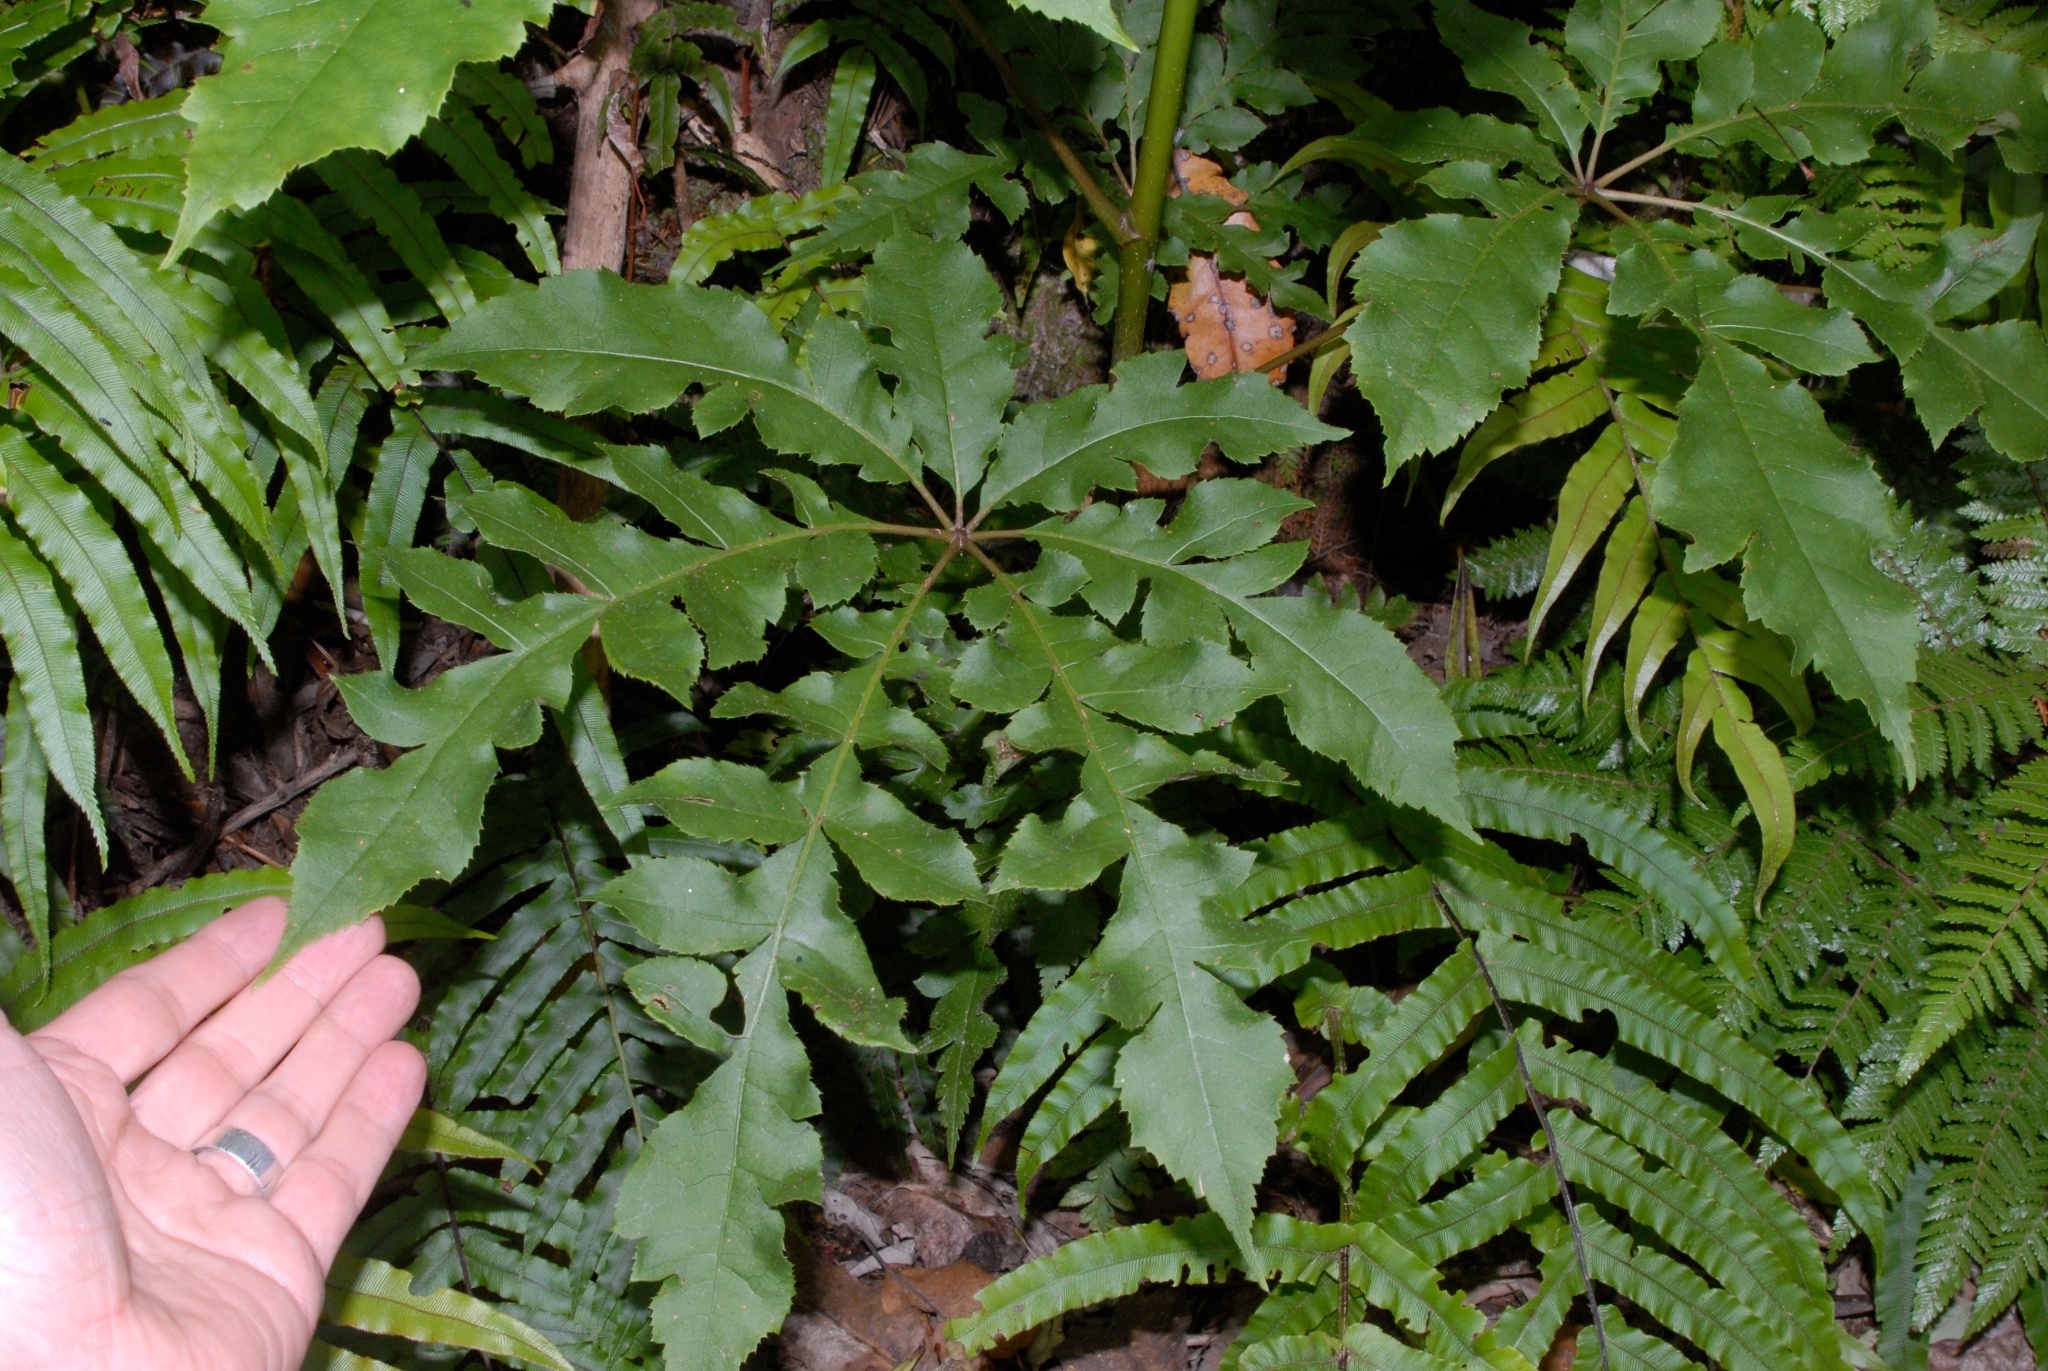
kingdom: Plantae
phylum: Tracheophyta
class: Magnoliopsida
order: Apiales
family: Araliaceae
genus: Schefflera
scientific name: Schefflera digitata
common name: Pate
